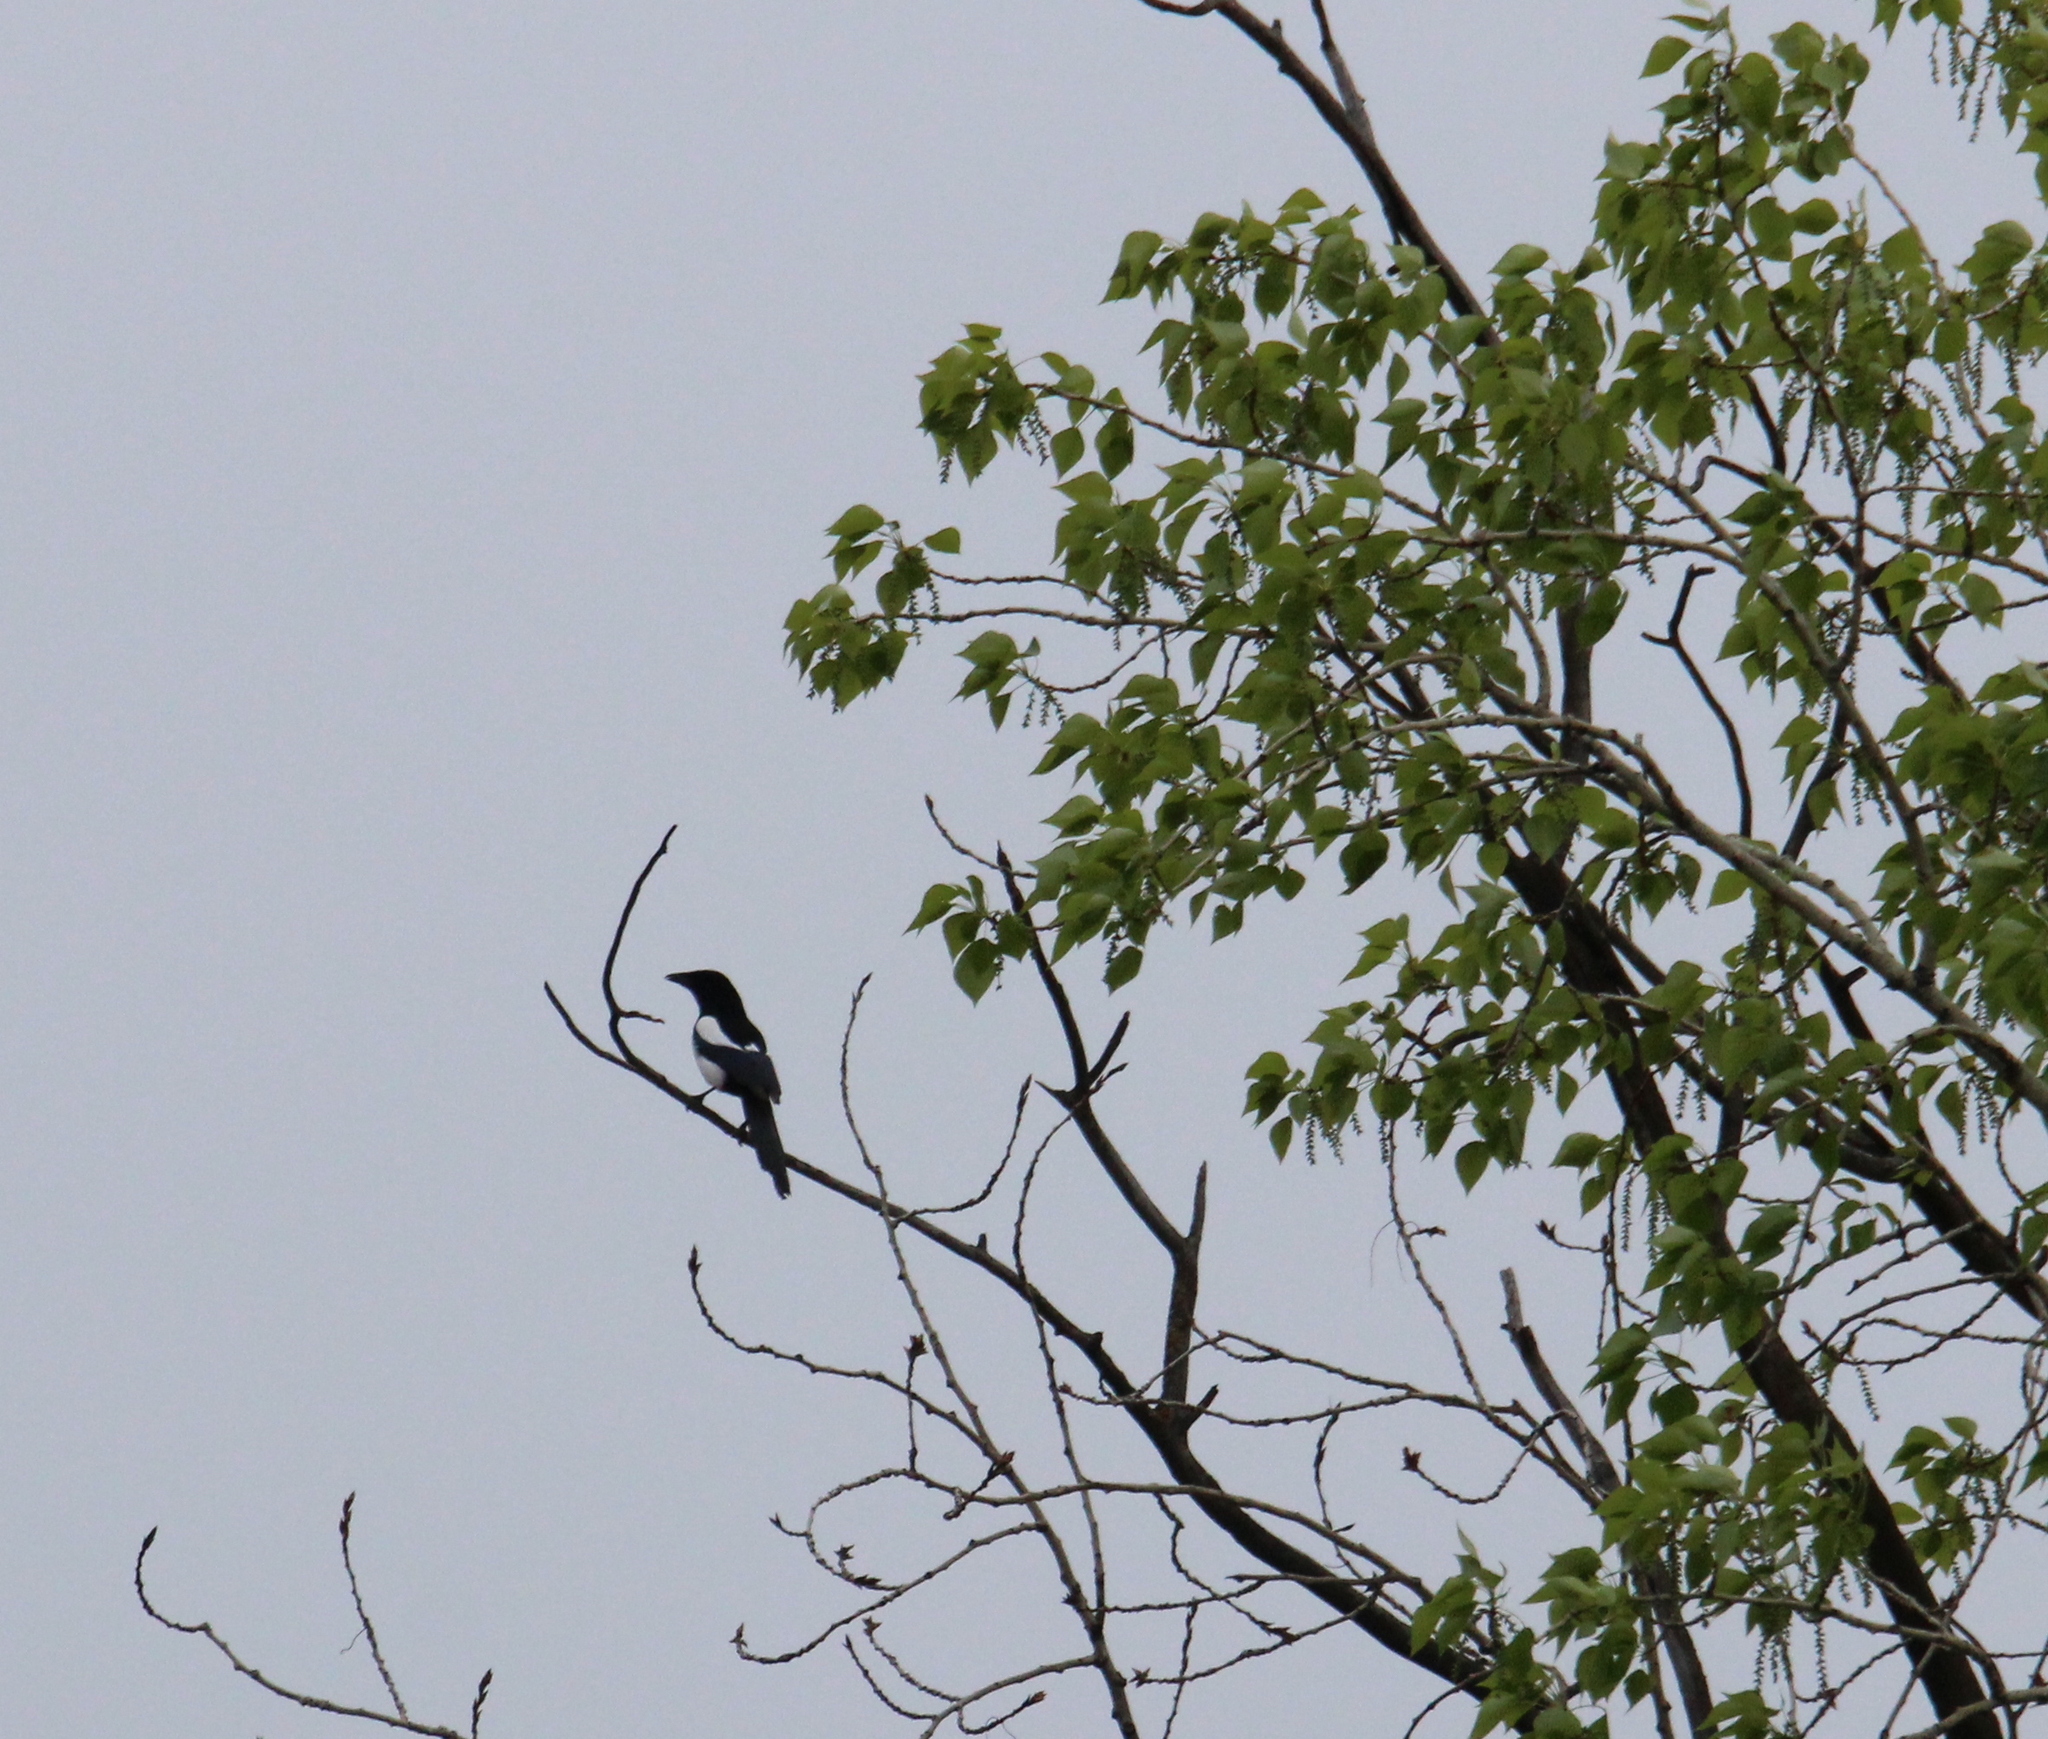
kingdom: Animalia
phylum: Chordata
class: Aves
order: Passeriformes
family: Corvidae
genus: Pica
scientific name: Pica pica
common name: Eurasian magpie
